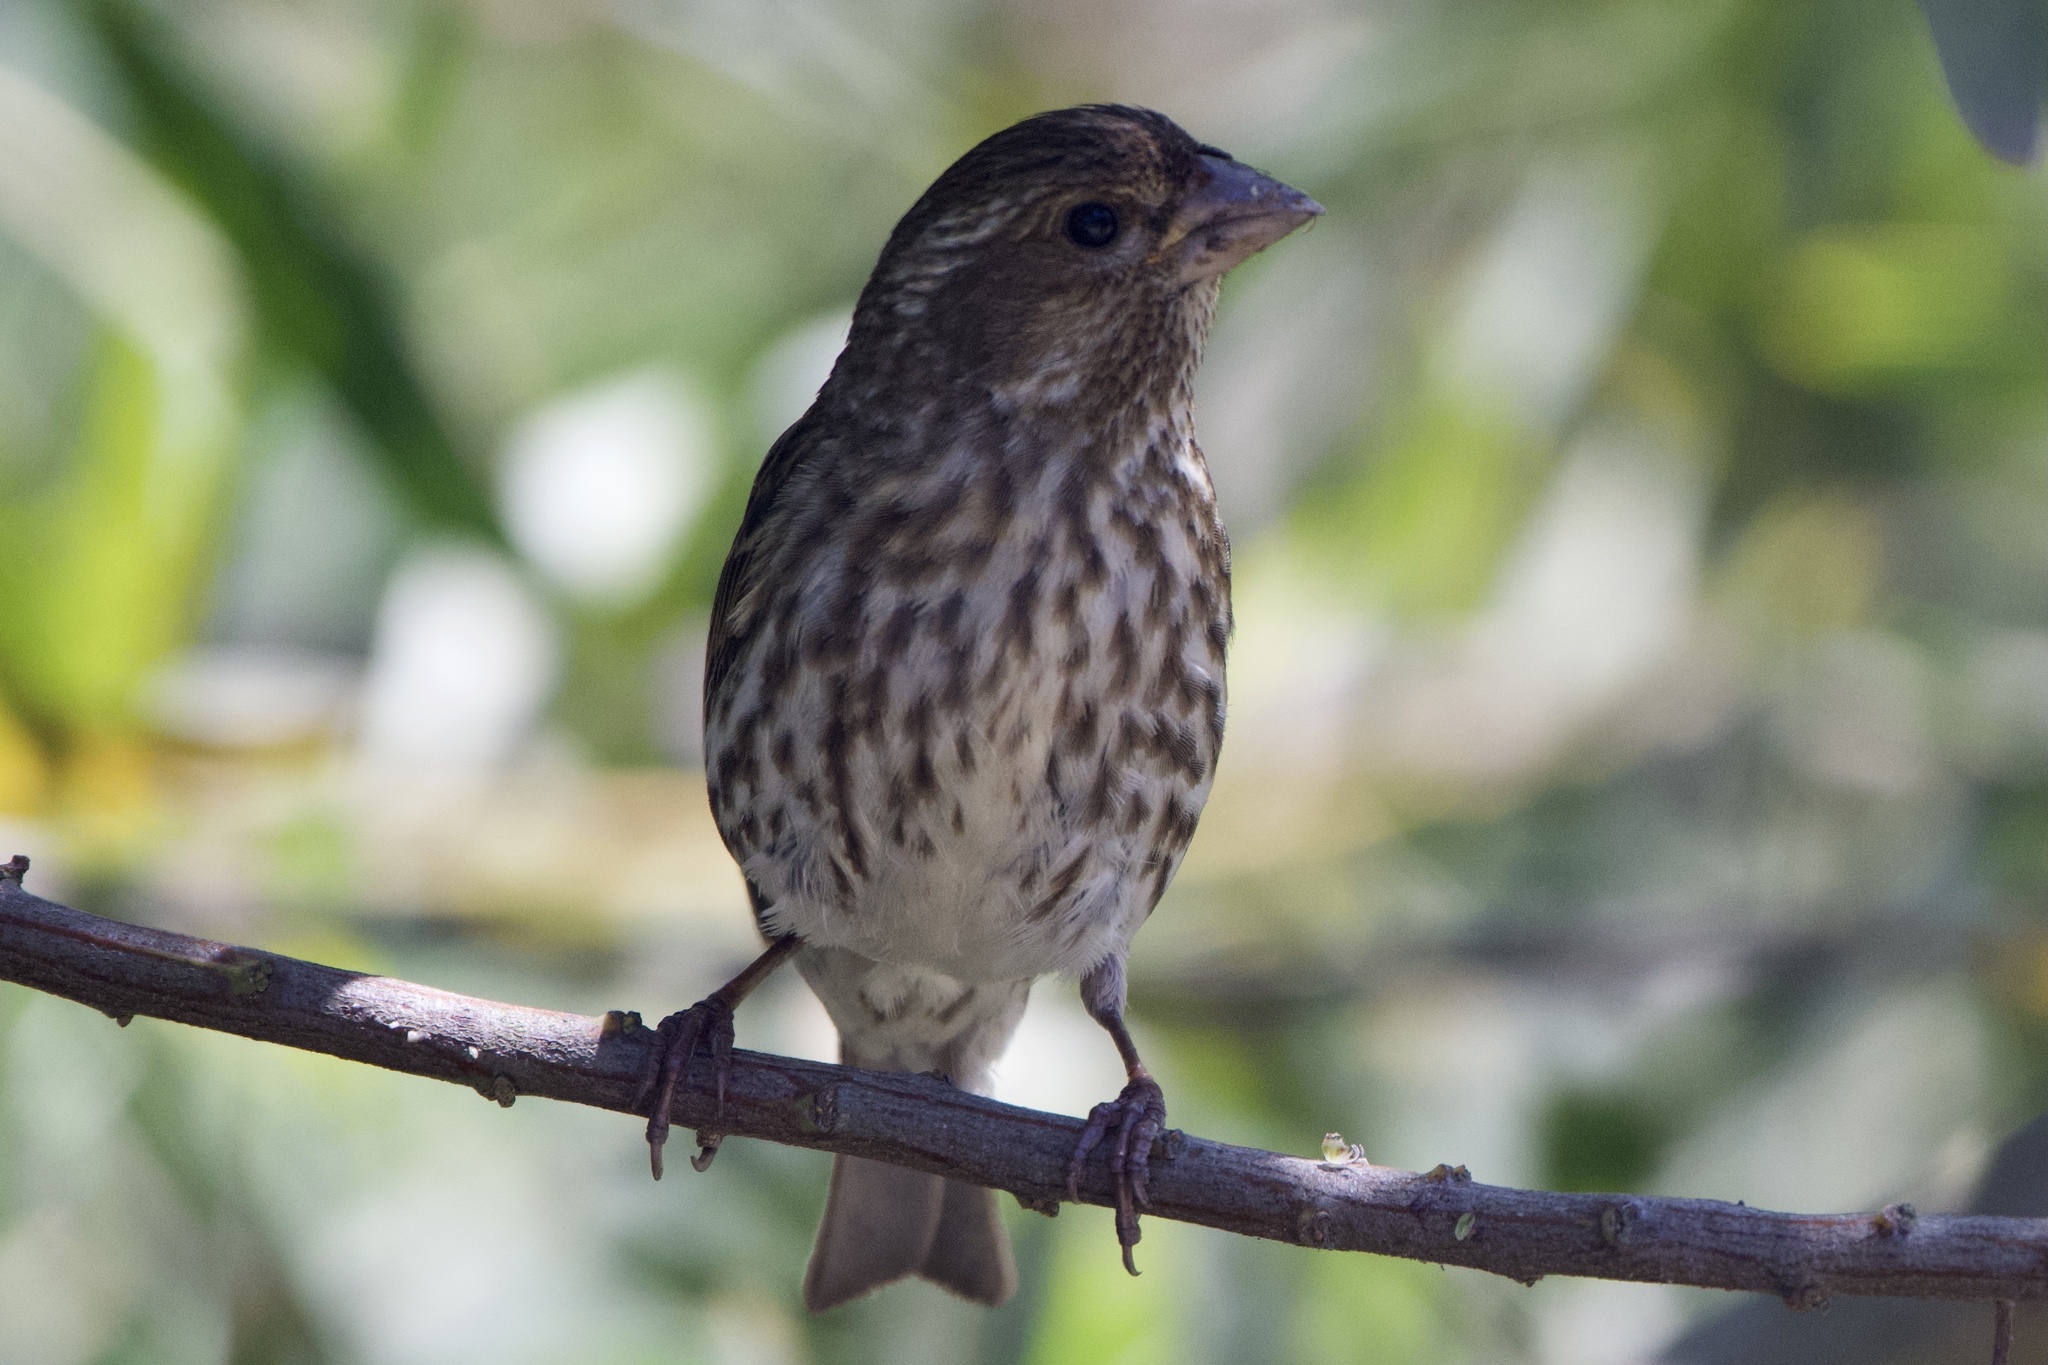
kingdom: Animalia
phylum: Chordata
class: Aves
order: Passeriformes
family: Fringillidae
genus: Haemorhous
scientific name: Haemorhous purpureus
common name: Purple finch
